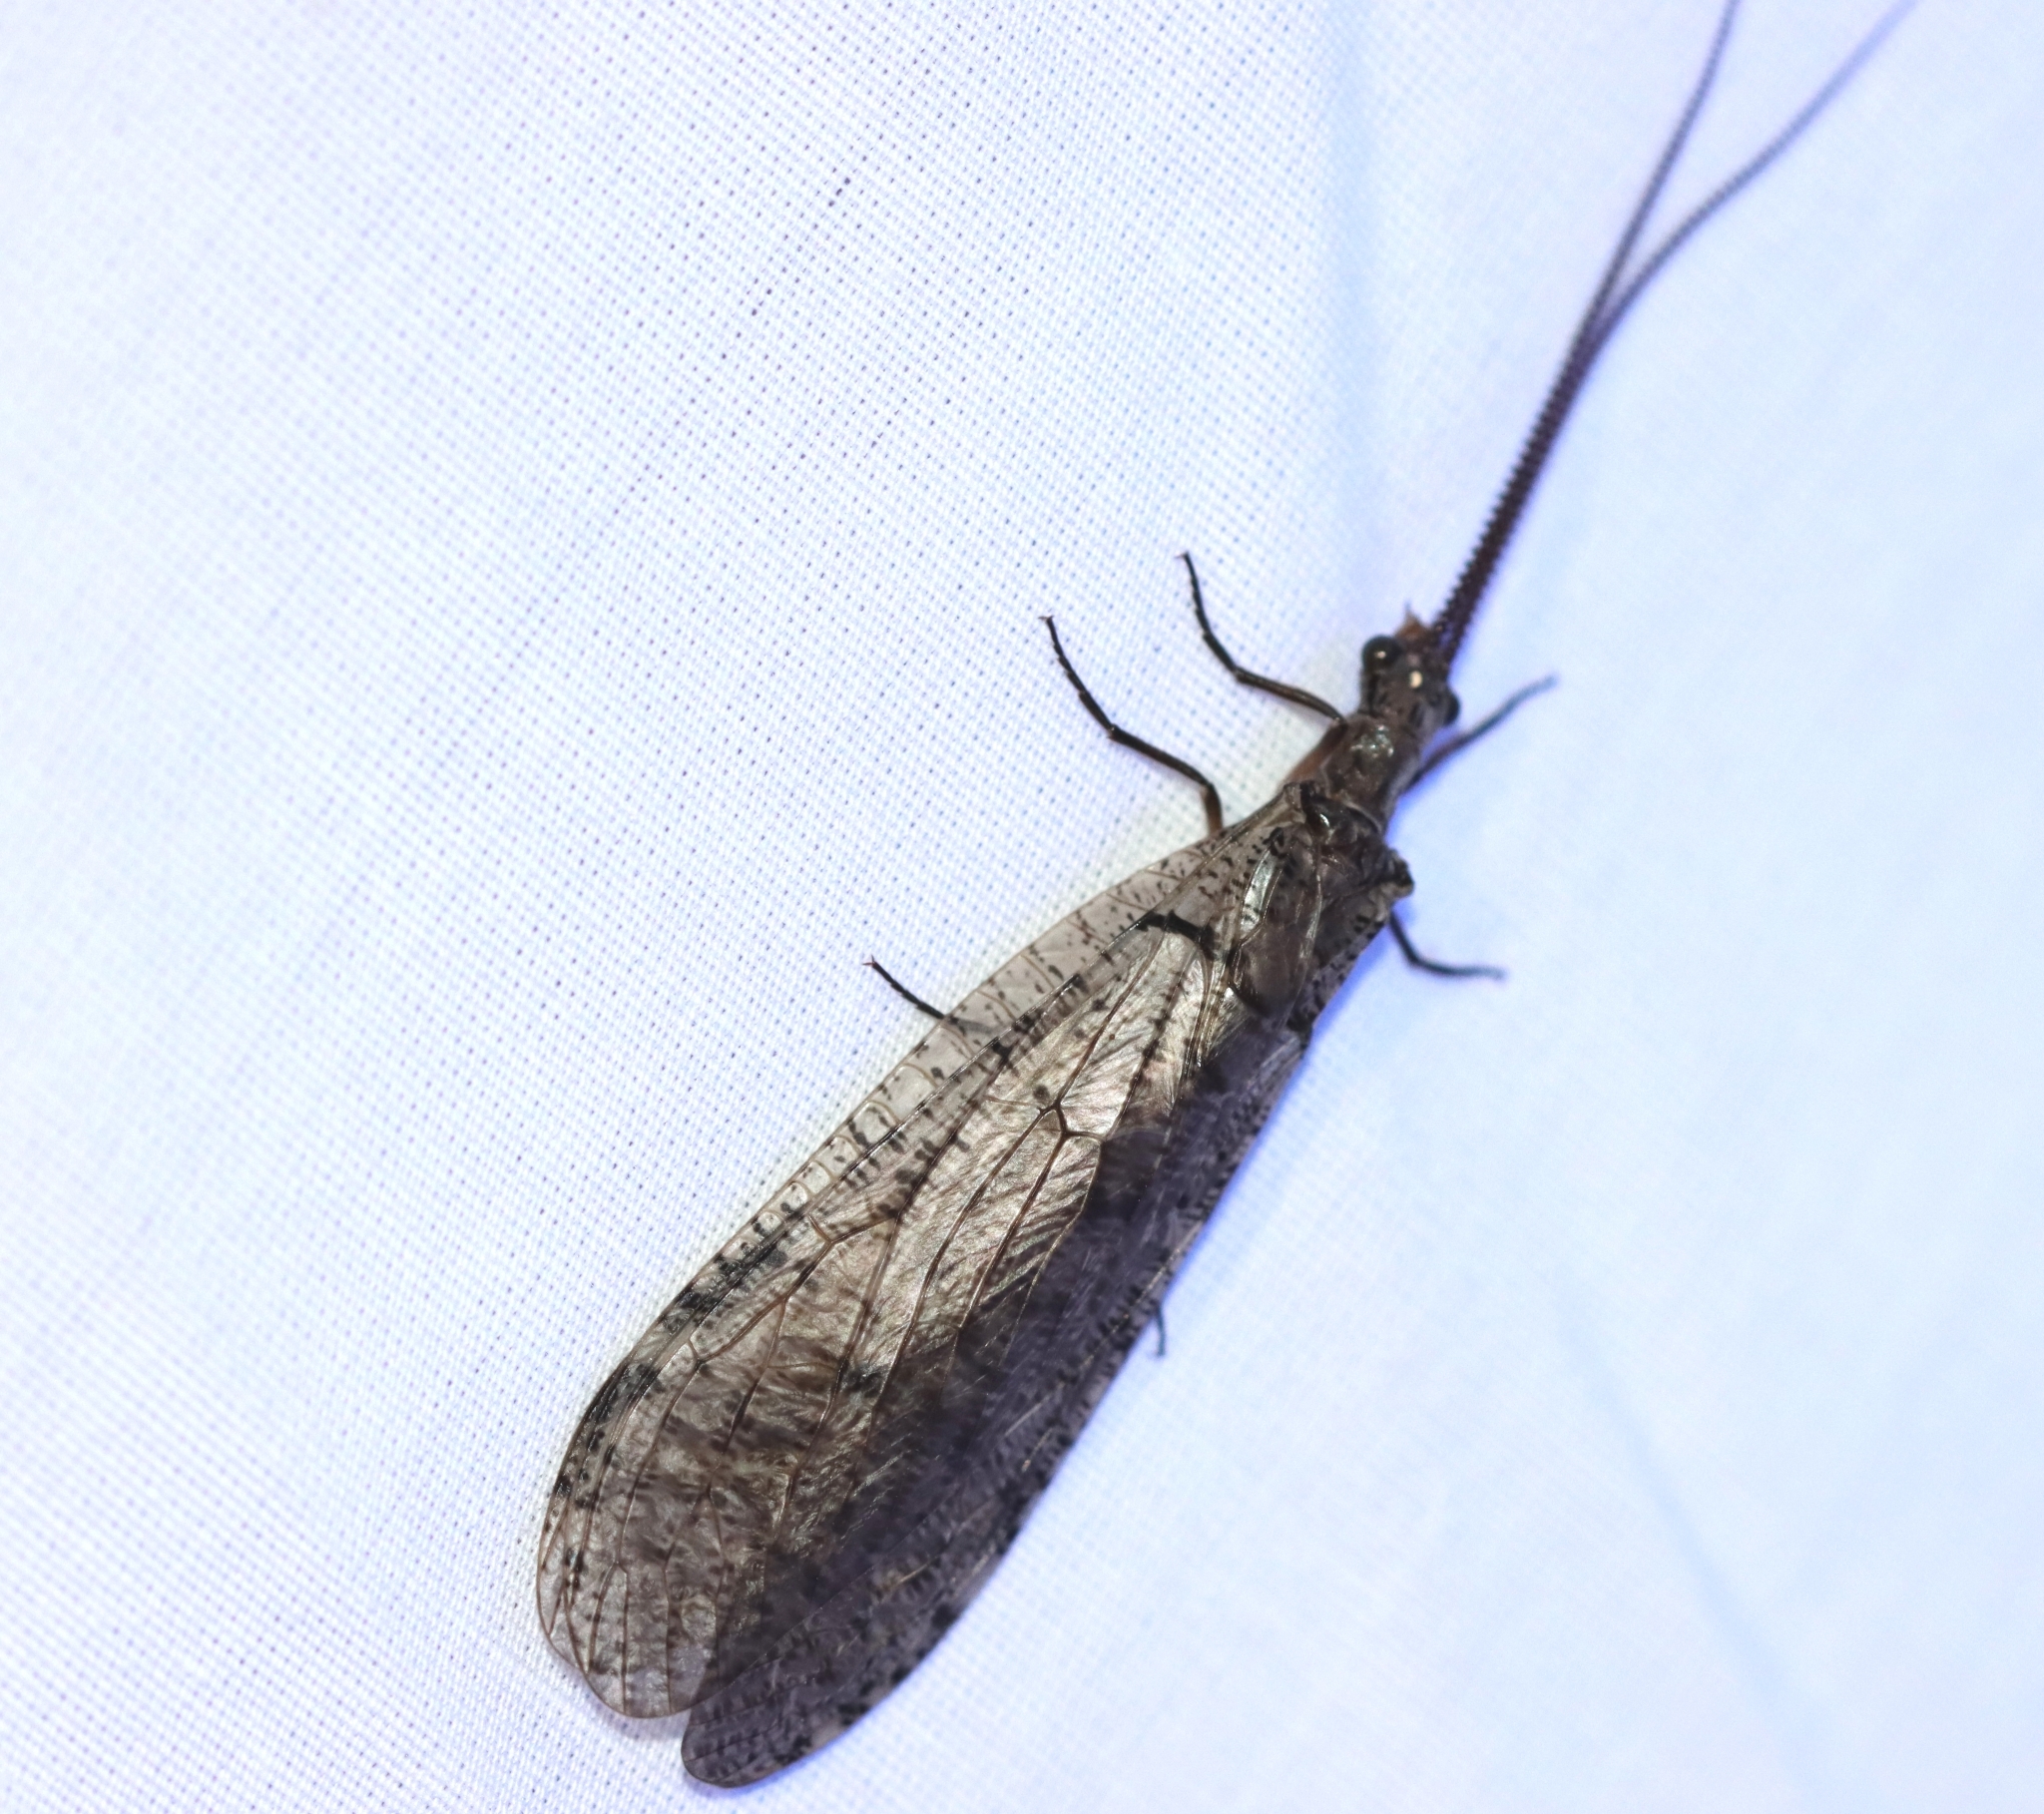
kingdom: Animalia
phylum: Arthropoda
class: Insecta
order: Megaloptera
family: Corydalidae
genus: Neohermes
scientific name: Neohermes filicornis
